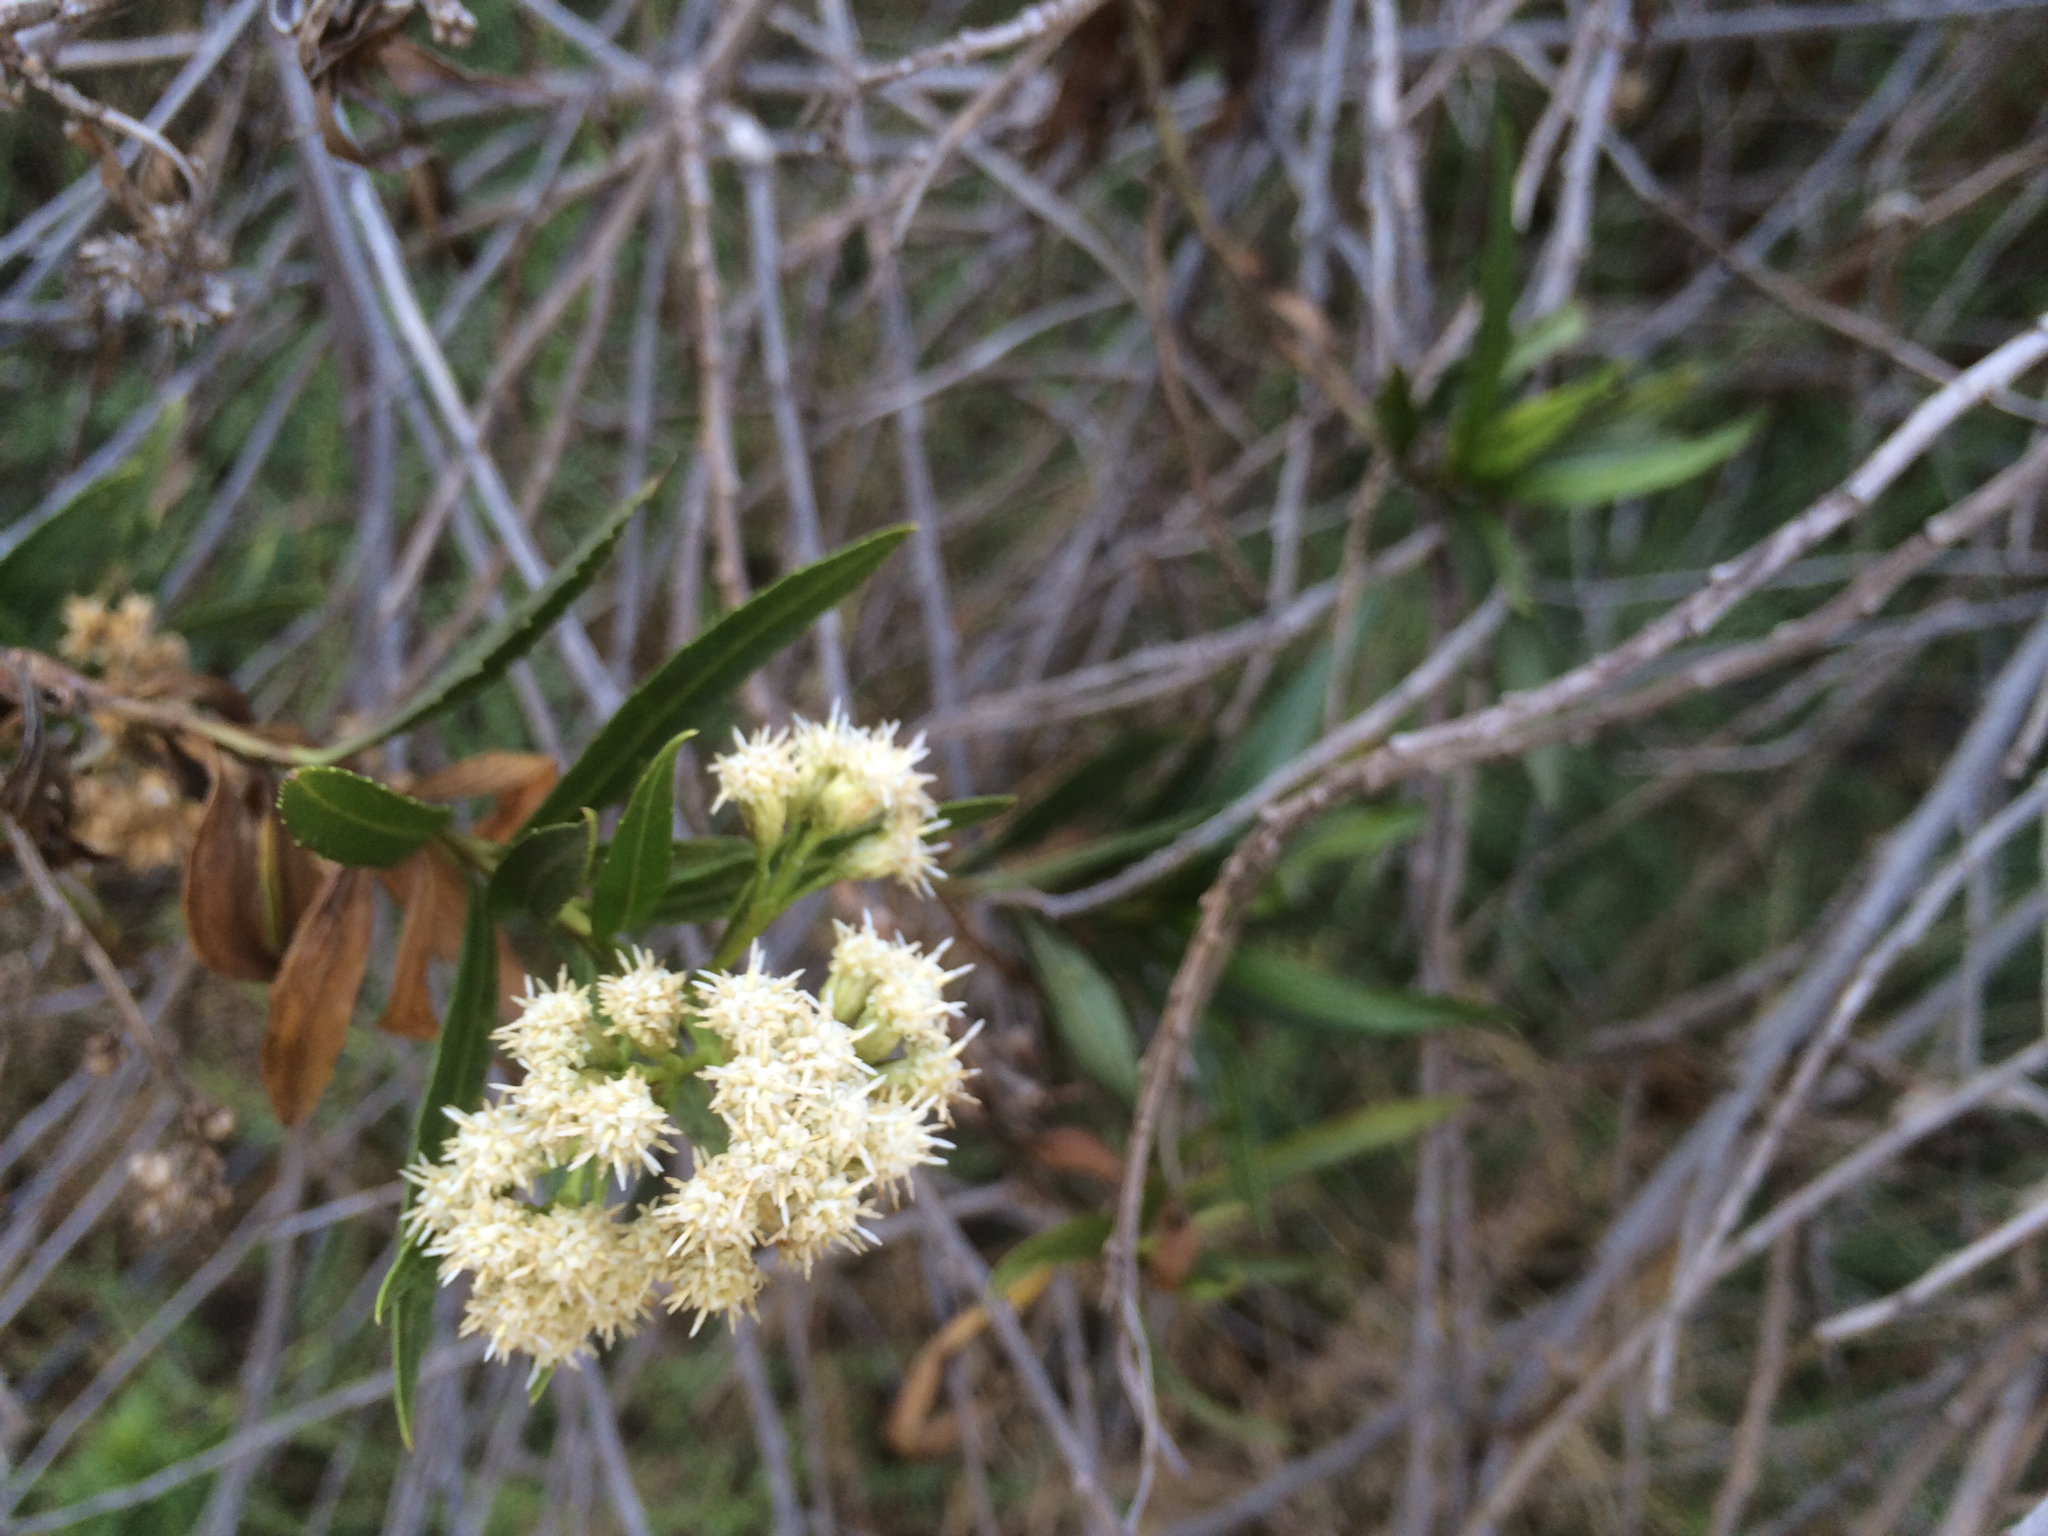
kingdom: Plantae
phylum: Tracheophyta
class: Magnoliopsida
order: Asterales
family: Asteraceae
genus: Baccharis
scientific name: Baccharis salicifolia
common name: Sticky baccharis
